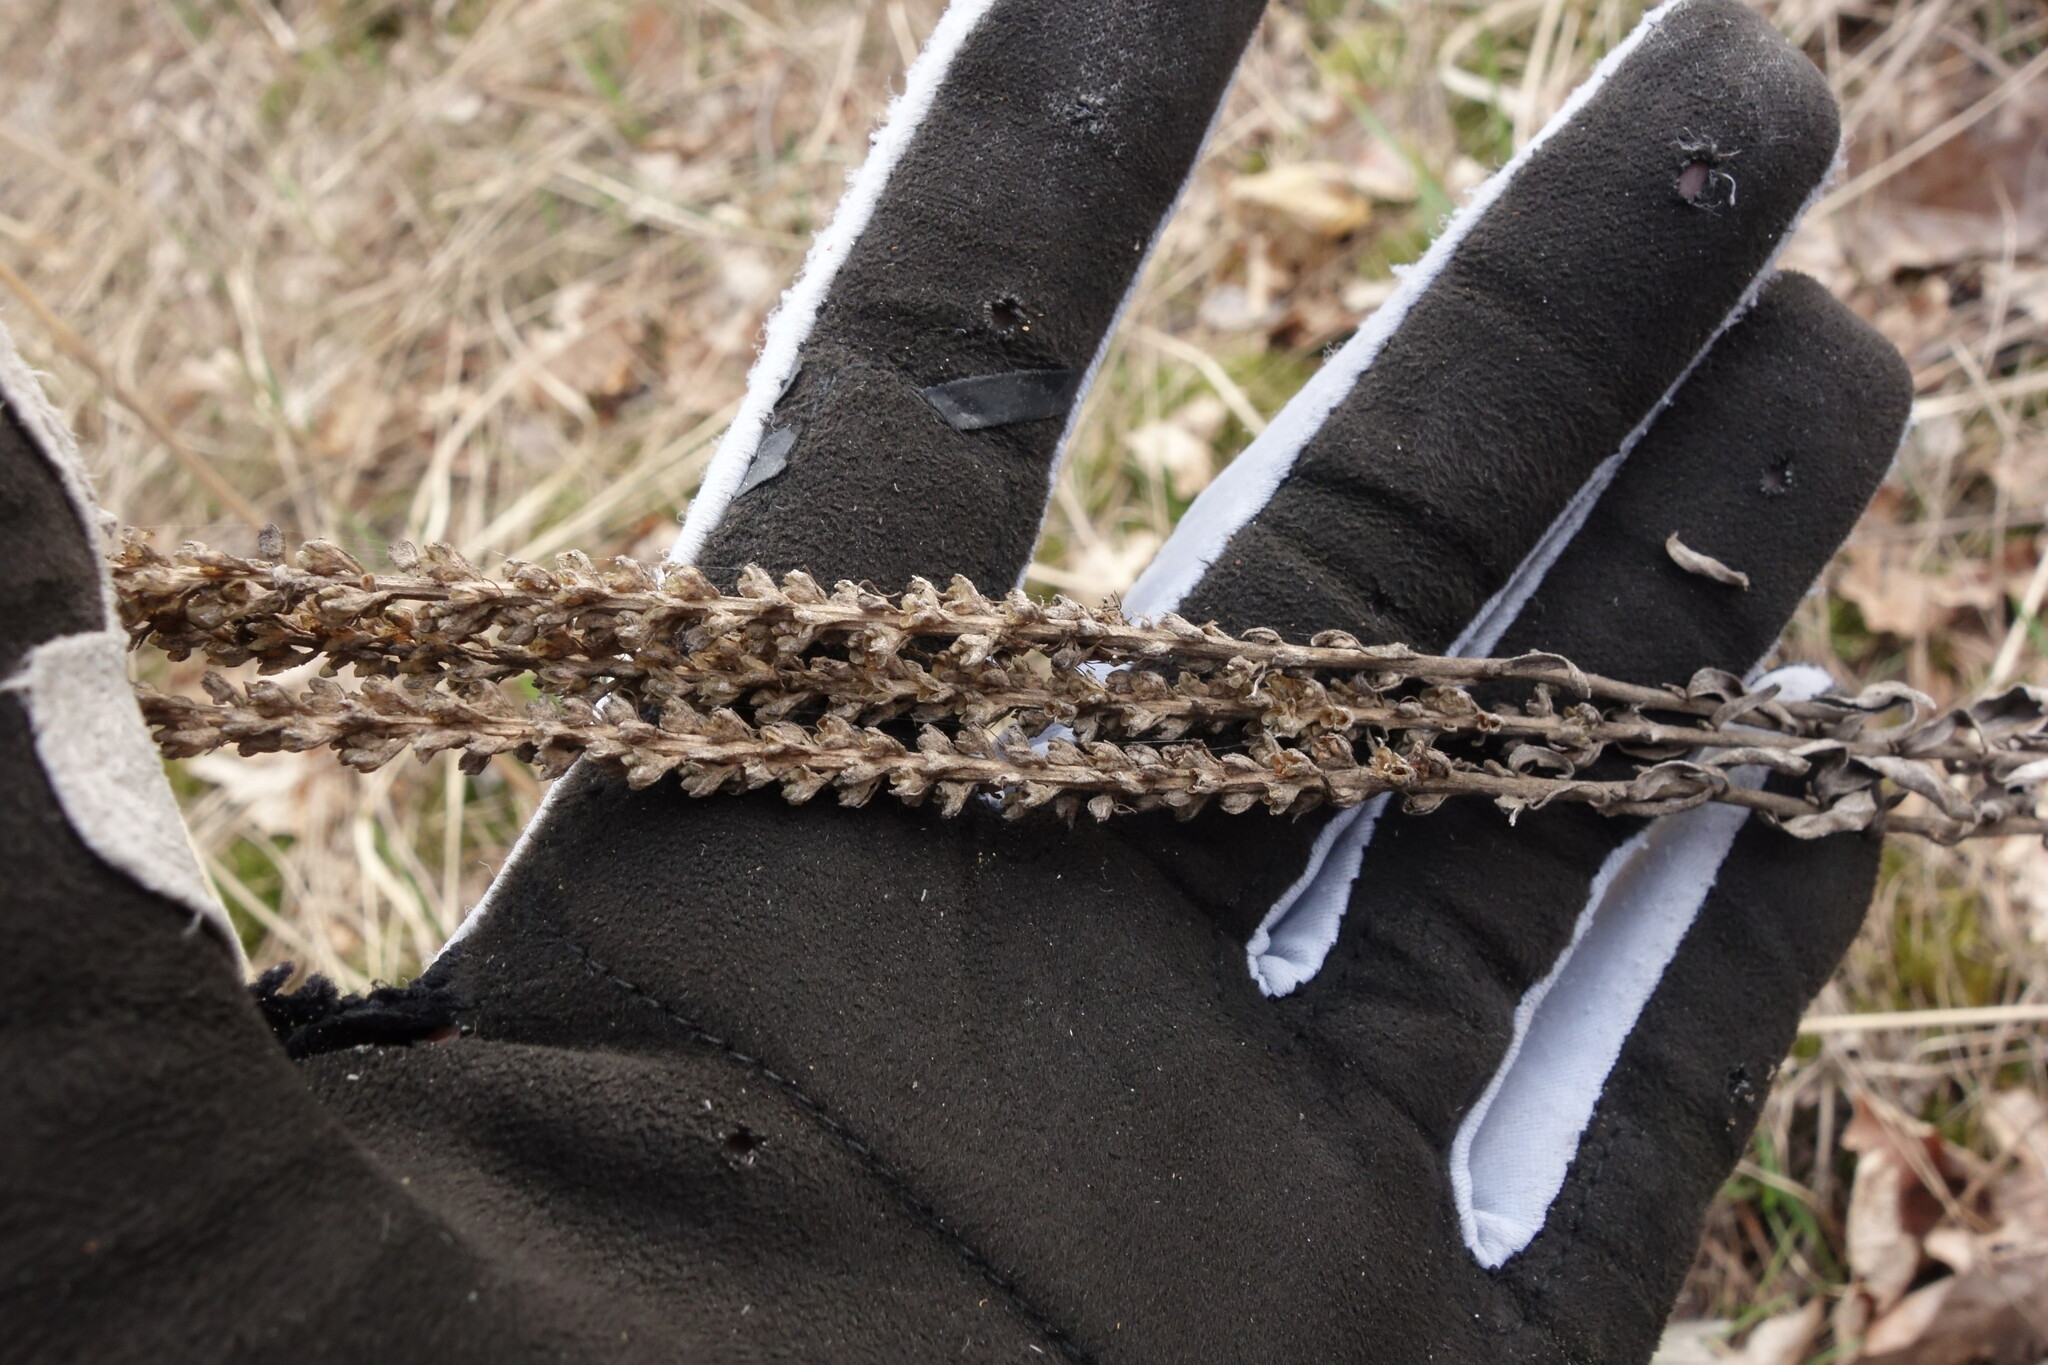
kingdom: Plantae
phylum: Tracheophyta
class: Magnoliopsida
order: Lamiales
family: Plantaginaceae
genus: Veronica
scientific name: Veronica incana
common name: Silver speedwell
